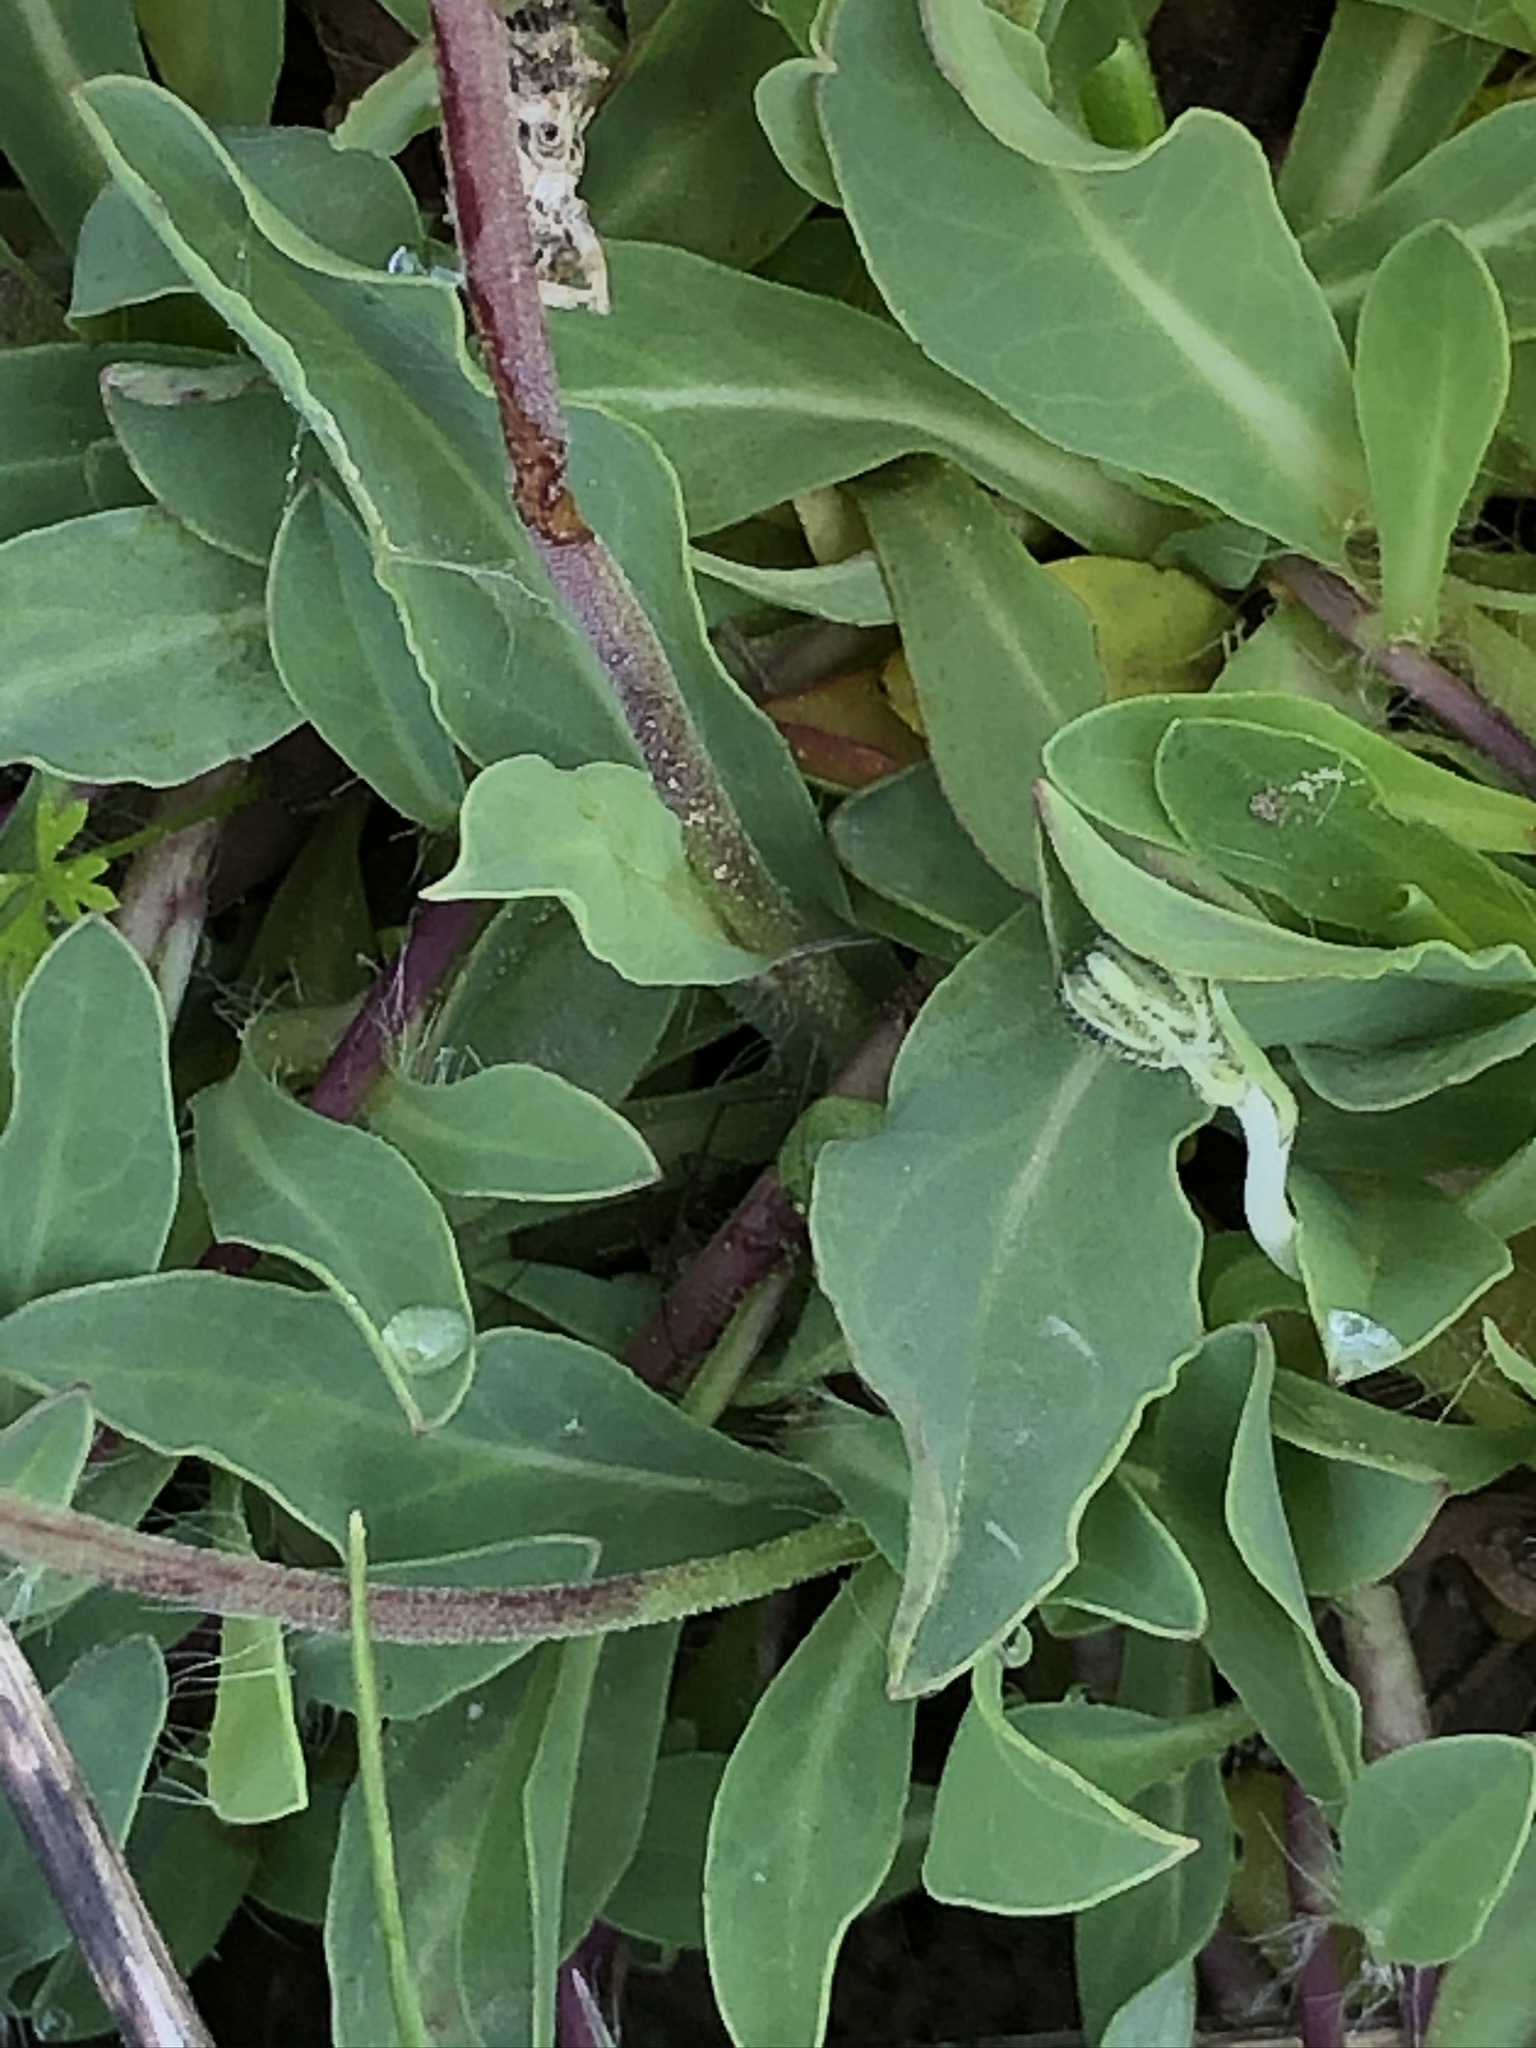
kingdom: Plantae
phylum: Tracheophyta
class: Magnoliopsida
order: Asterales
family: Asteraceae
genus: Pilosella
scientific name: Pilosella lactucella
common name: Glaucous fox-and-cubs
